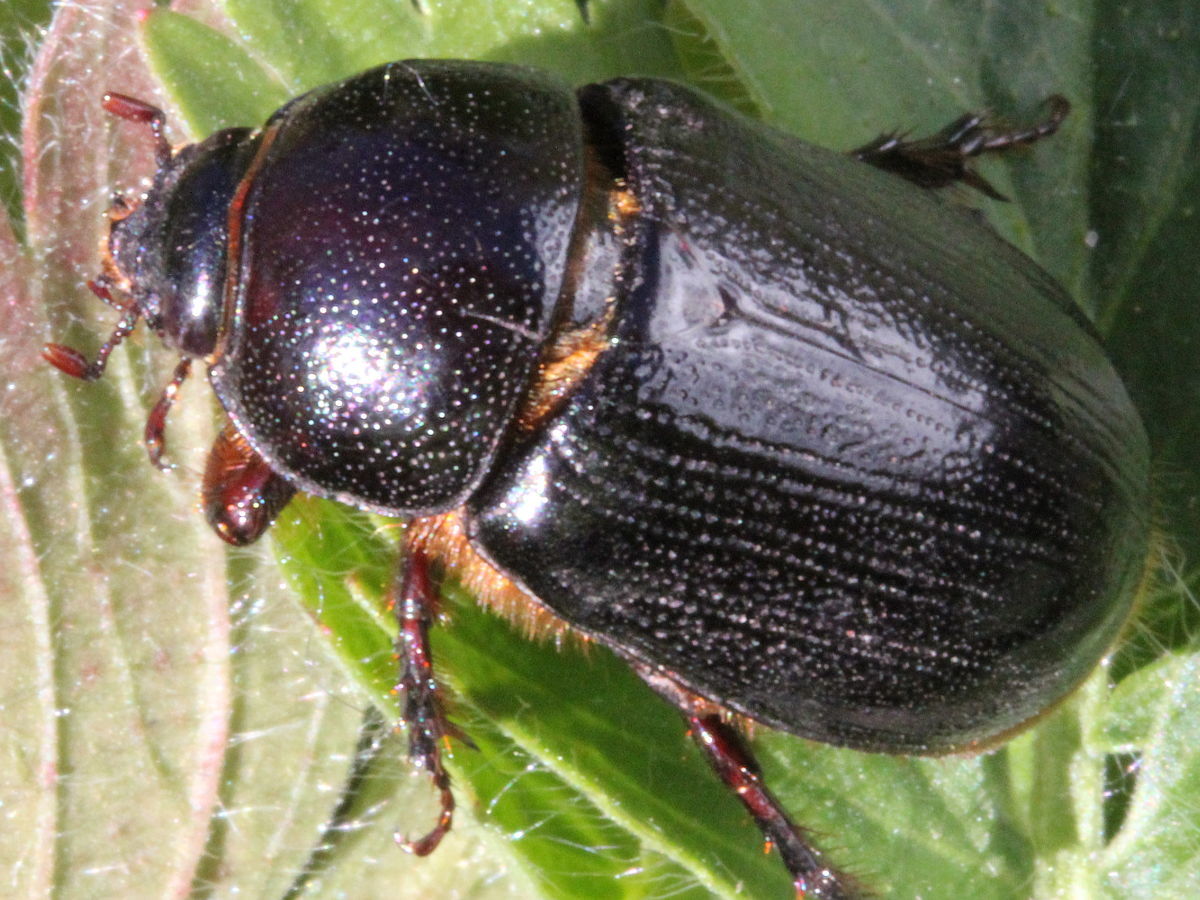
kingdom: Animalia
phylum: Arthropoda
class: Insecta
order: Coleoptera
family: Scarabaeidae
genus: Ligyrus
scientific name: Ligyrus relictus
